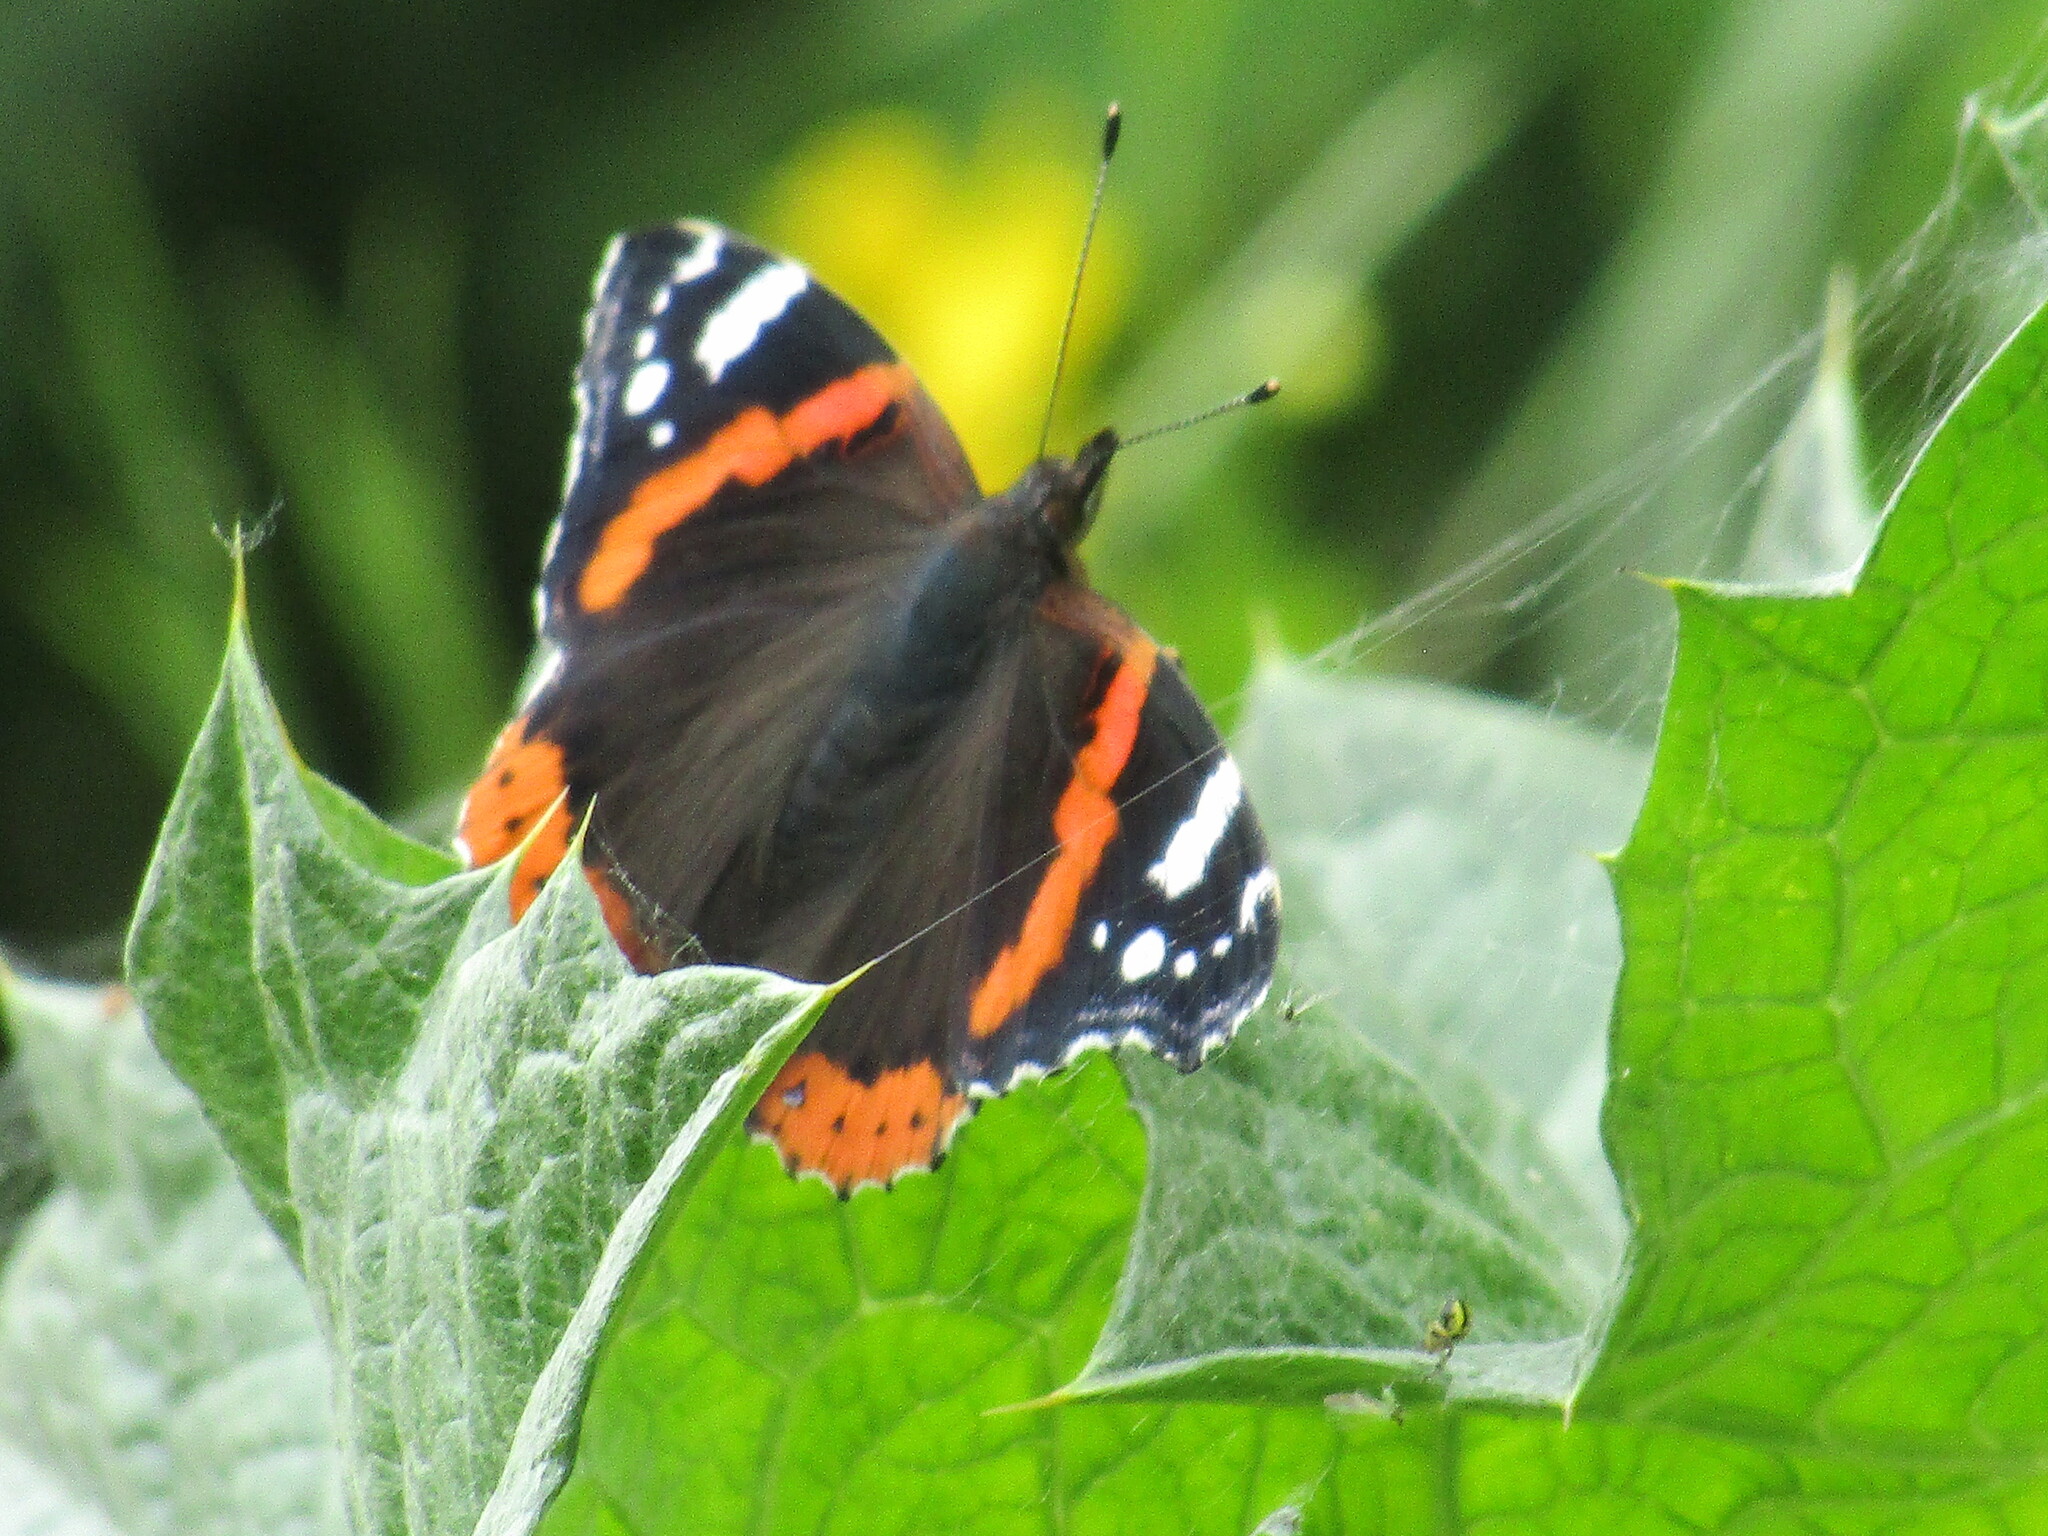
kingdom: Animalia
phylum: Arthropoda
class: Insecta
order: Lepidoptera
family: Nymphalidae
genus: Vanessa
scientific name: Vanessa atalanta
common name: Red admiral
